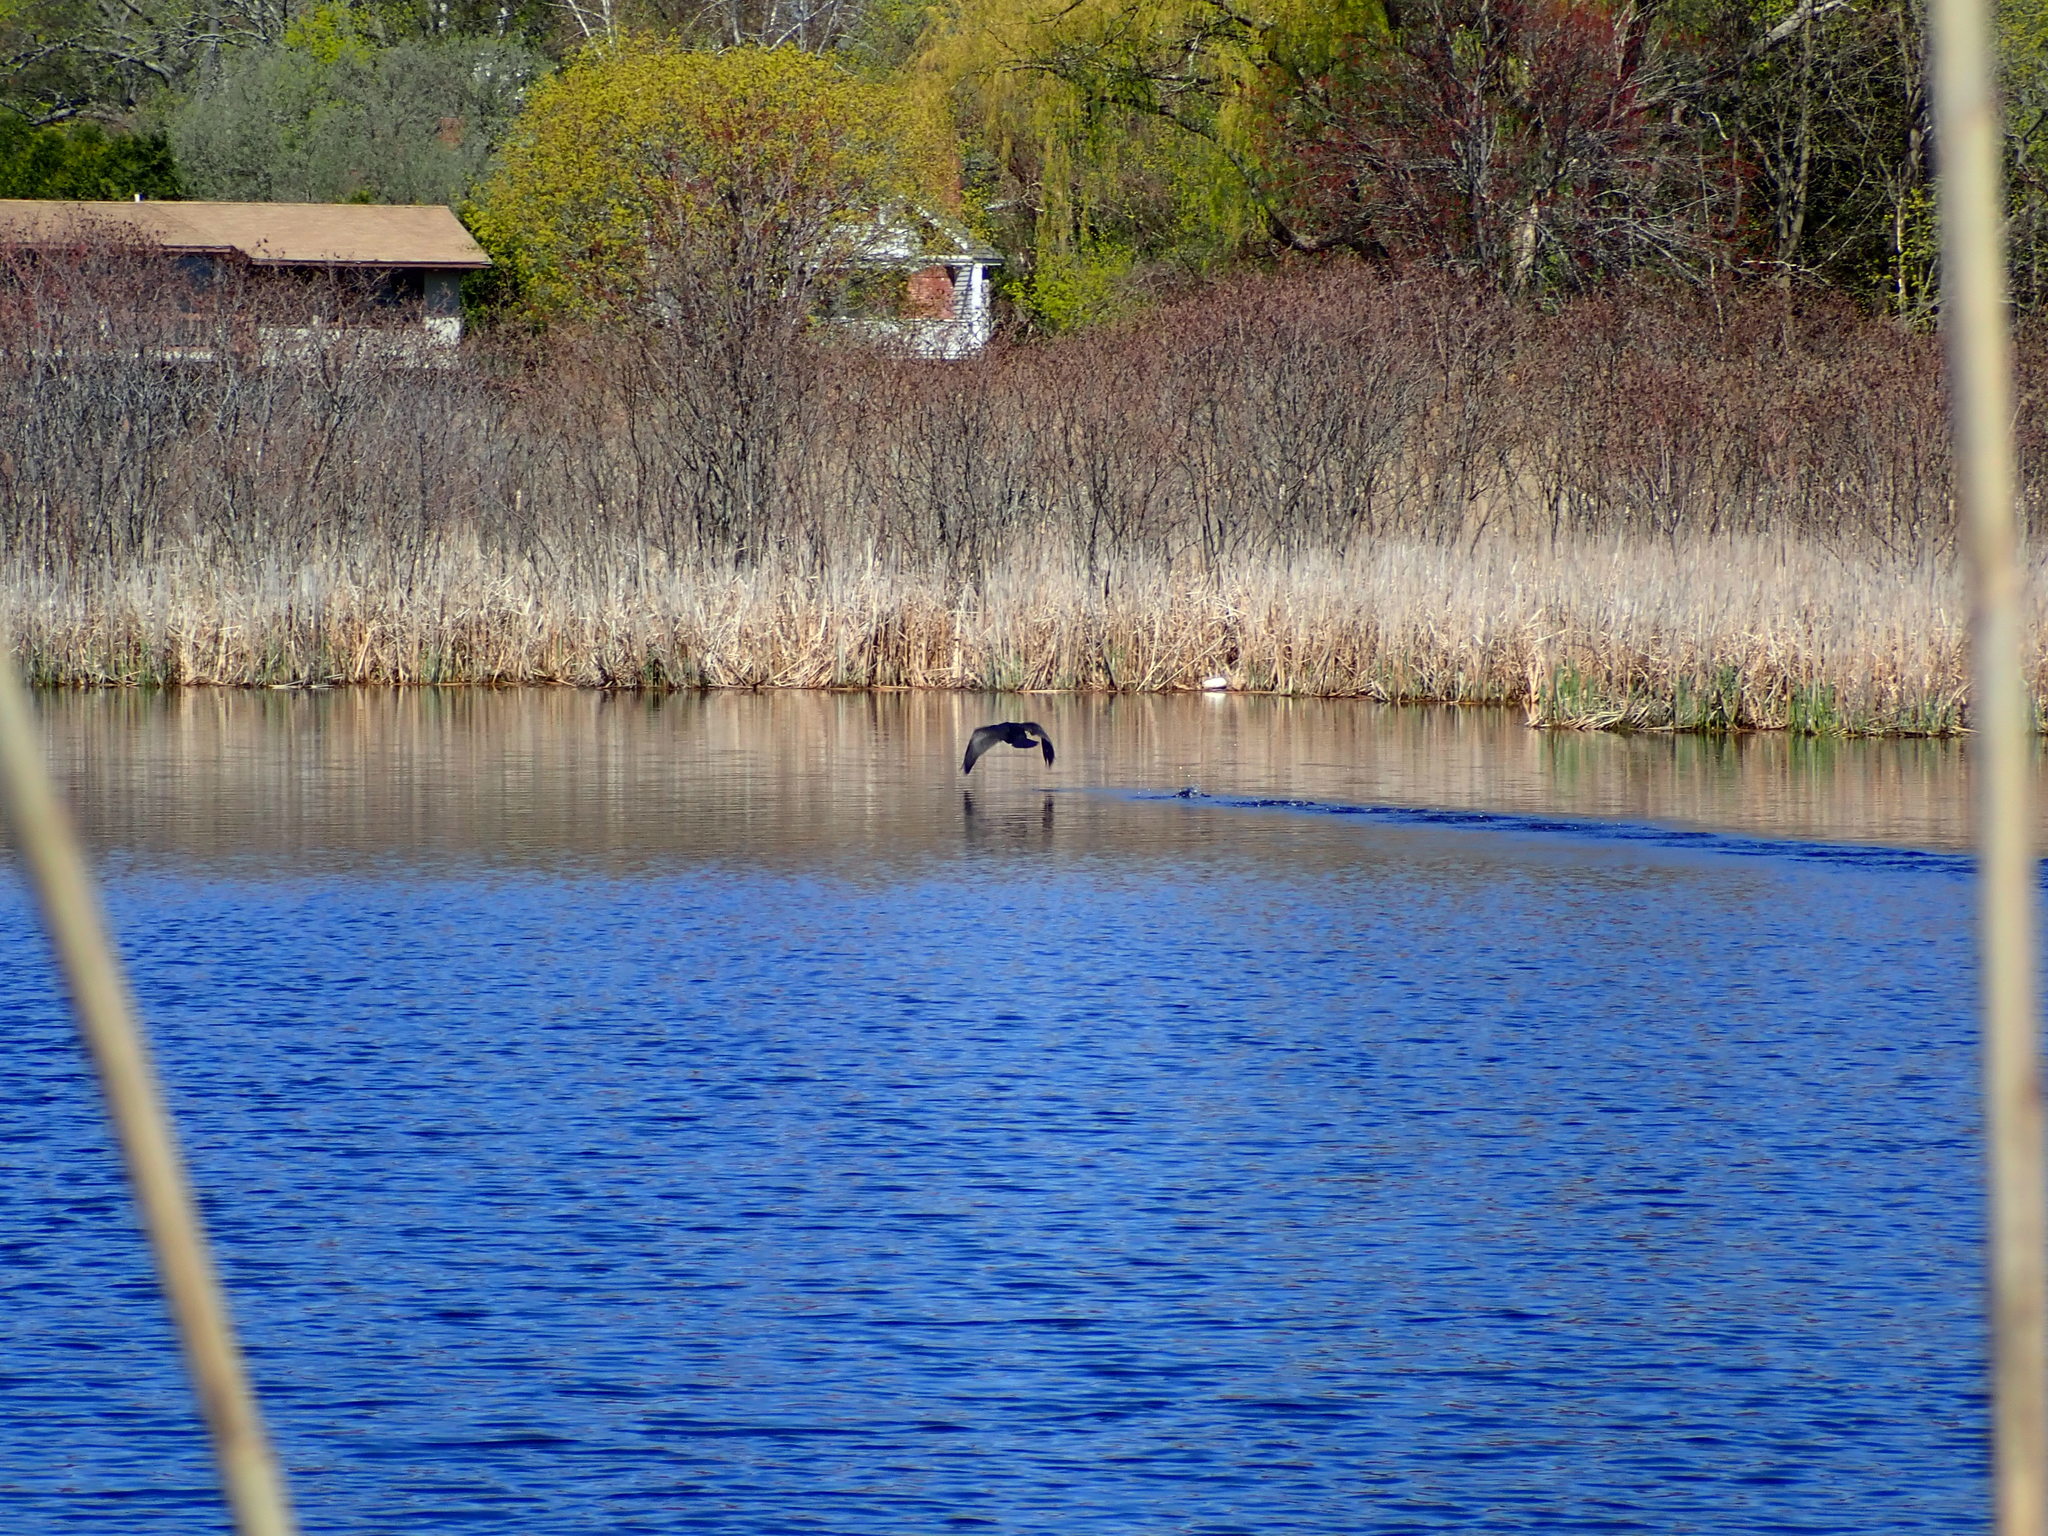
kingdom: Animalia
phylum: Chordata
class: Aves
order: Suliformes
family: Phalacrocoracidae
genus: Phalacrocorax
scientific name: Phalacrocorax auritus
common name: Double-crested cormorant
